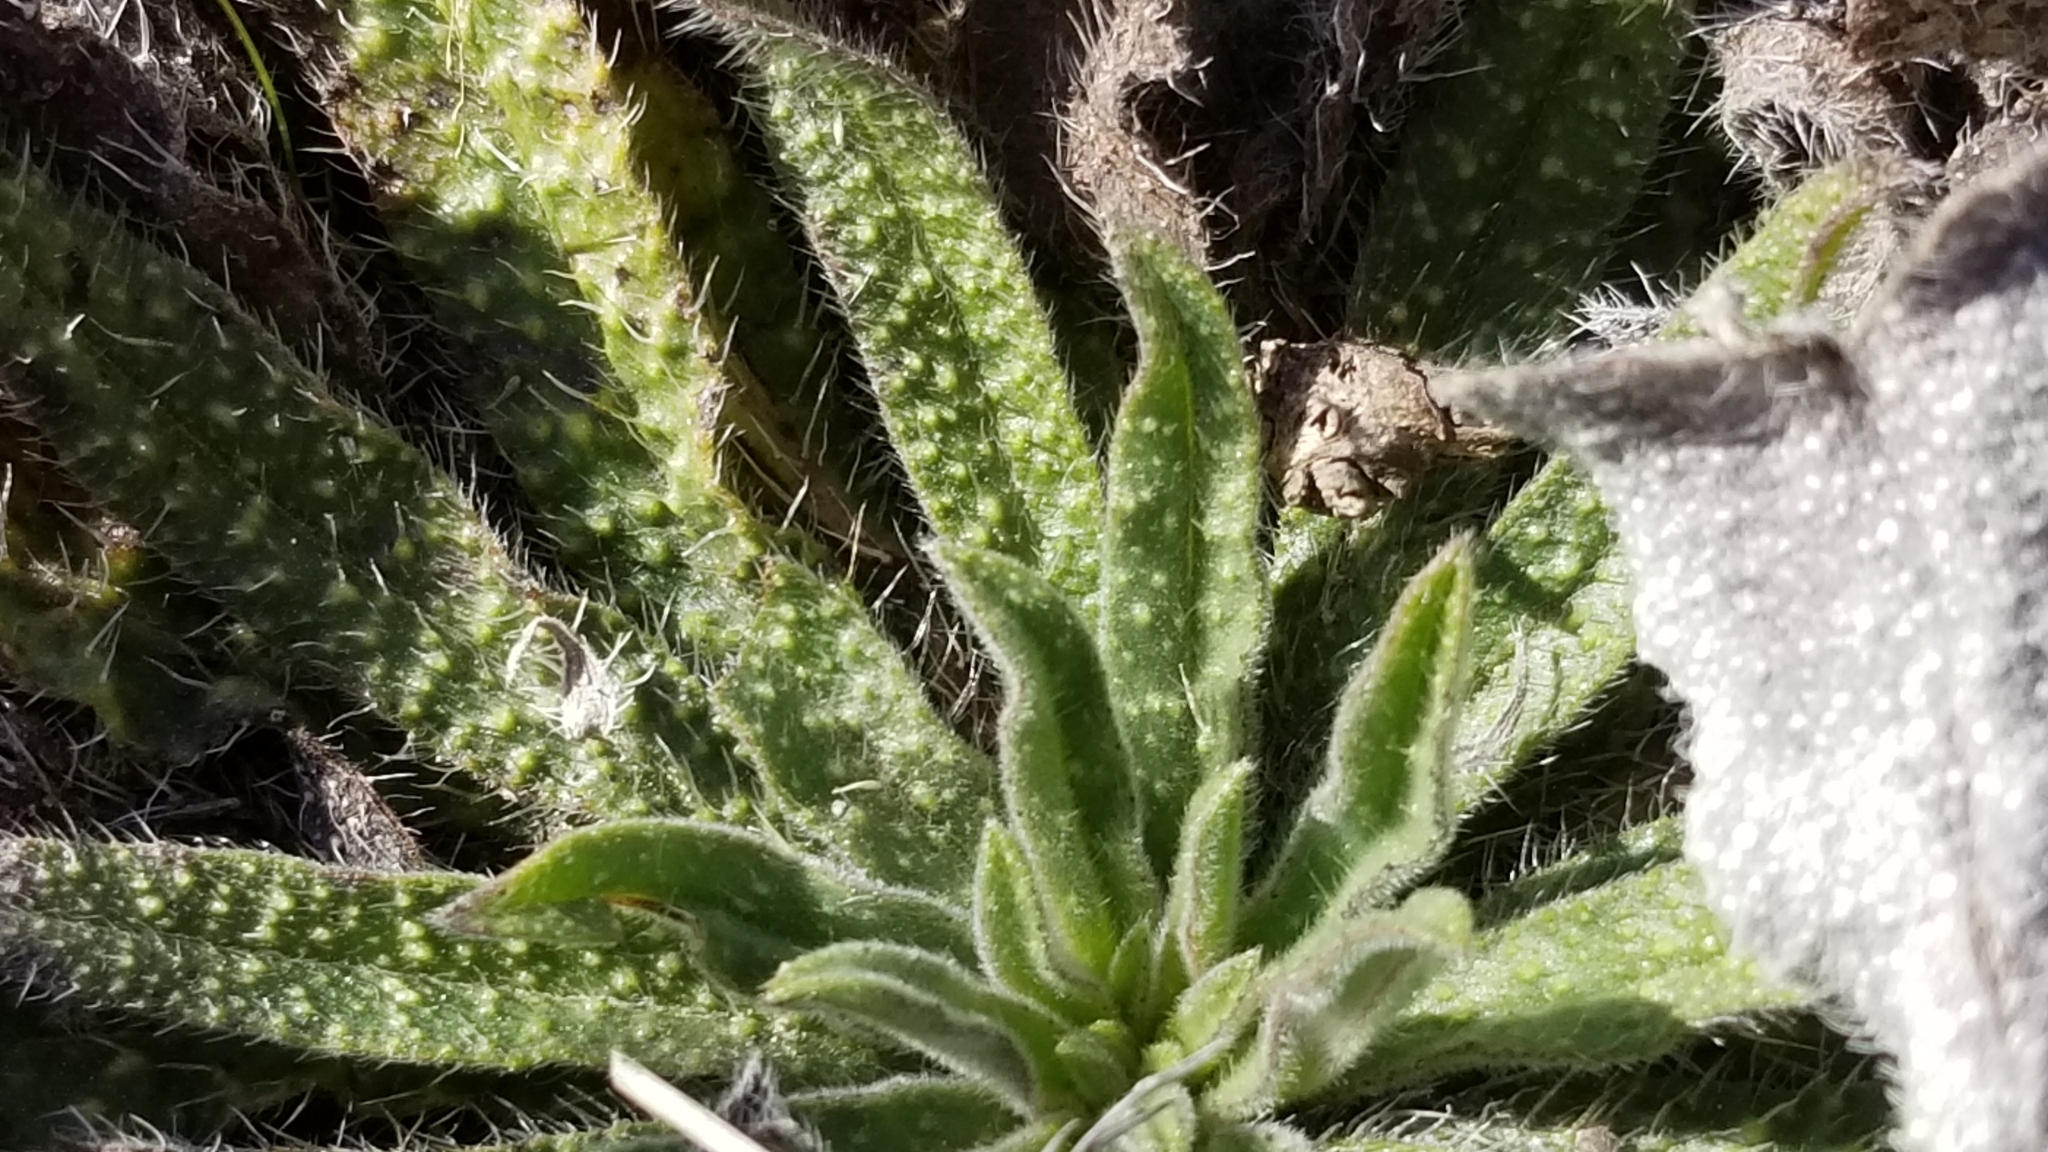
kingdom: Plantae
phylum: Tracheophyta
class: Magnoliopsida
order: Boraginales
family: Boraginaceae
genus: Echium
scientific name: Echium vulgare
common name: Common viper's bugloss
